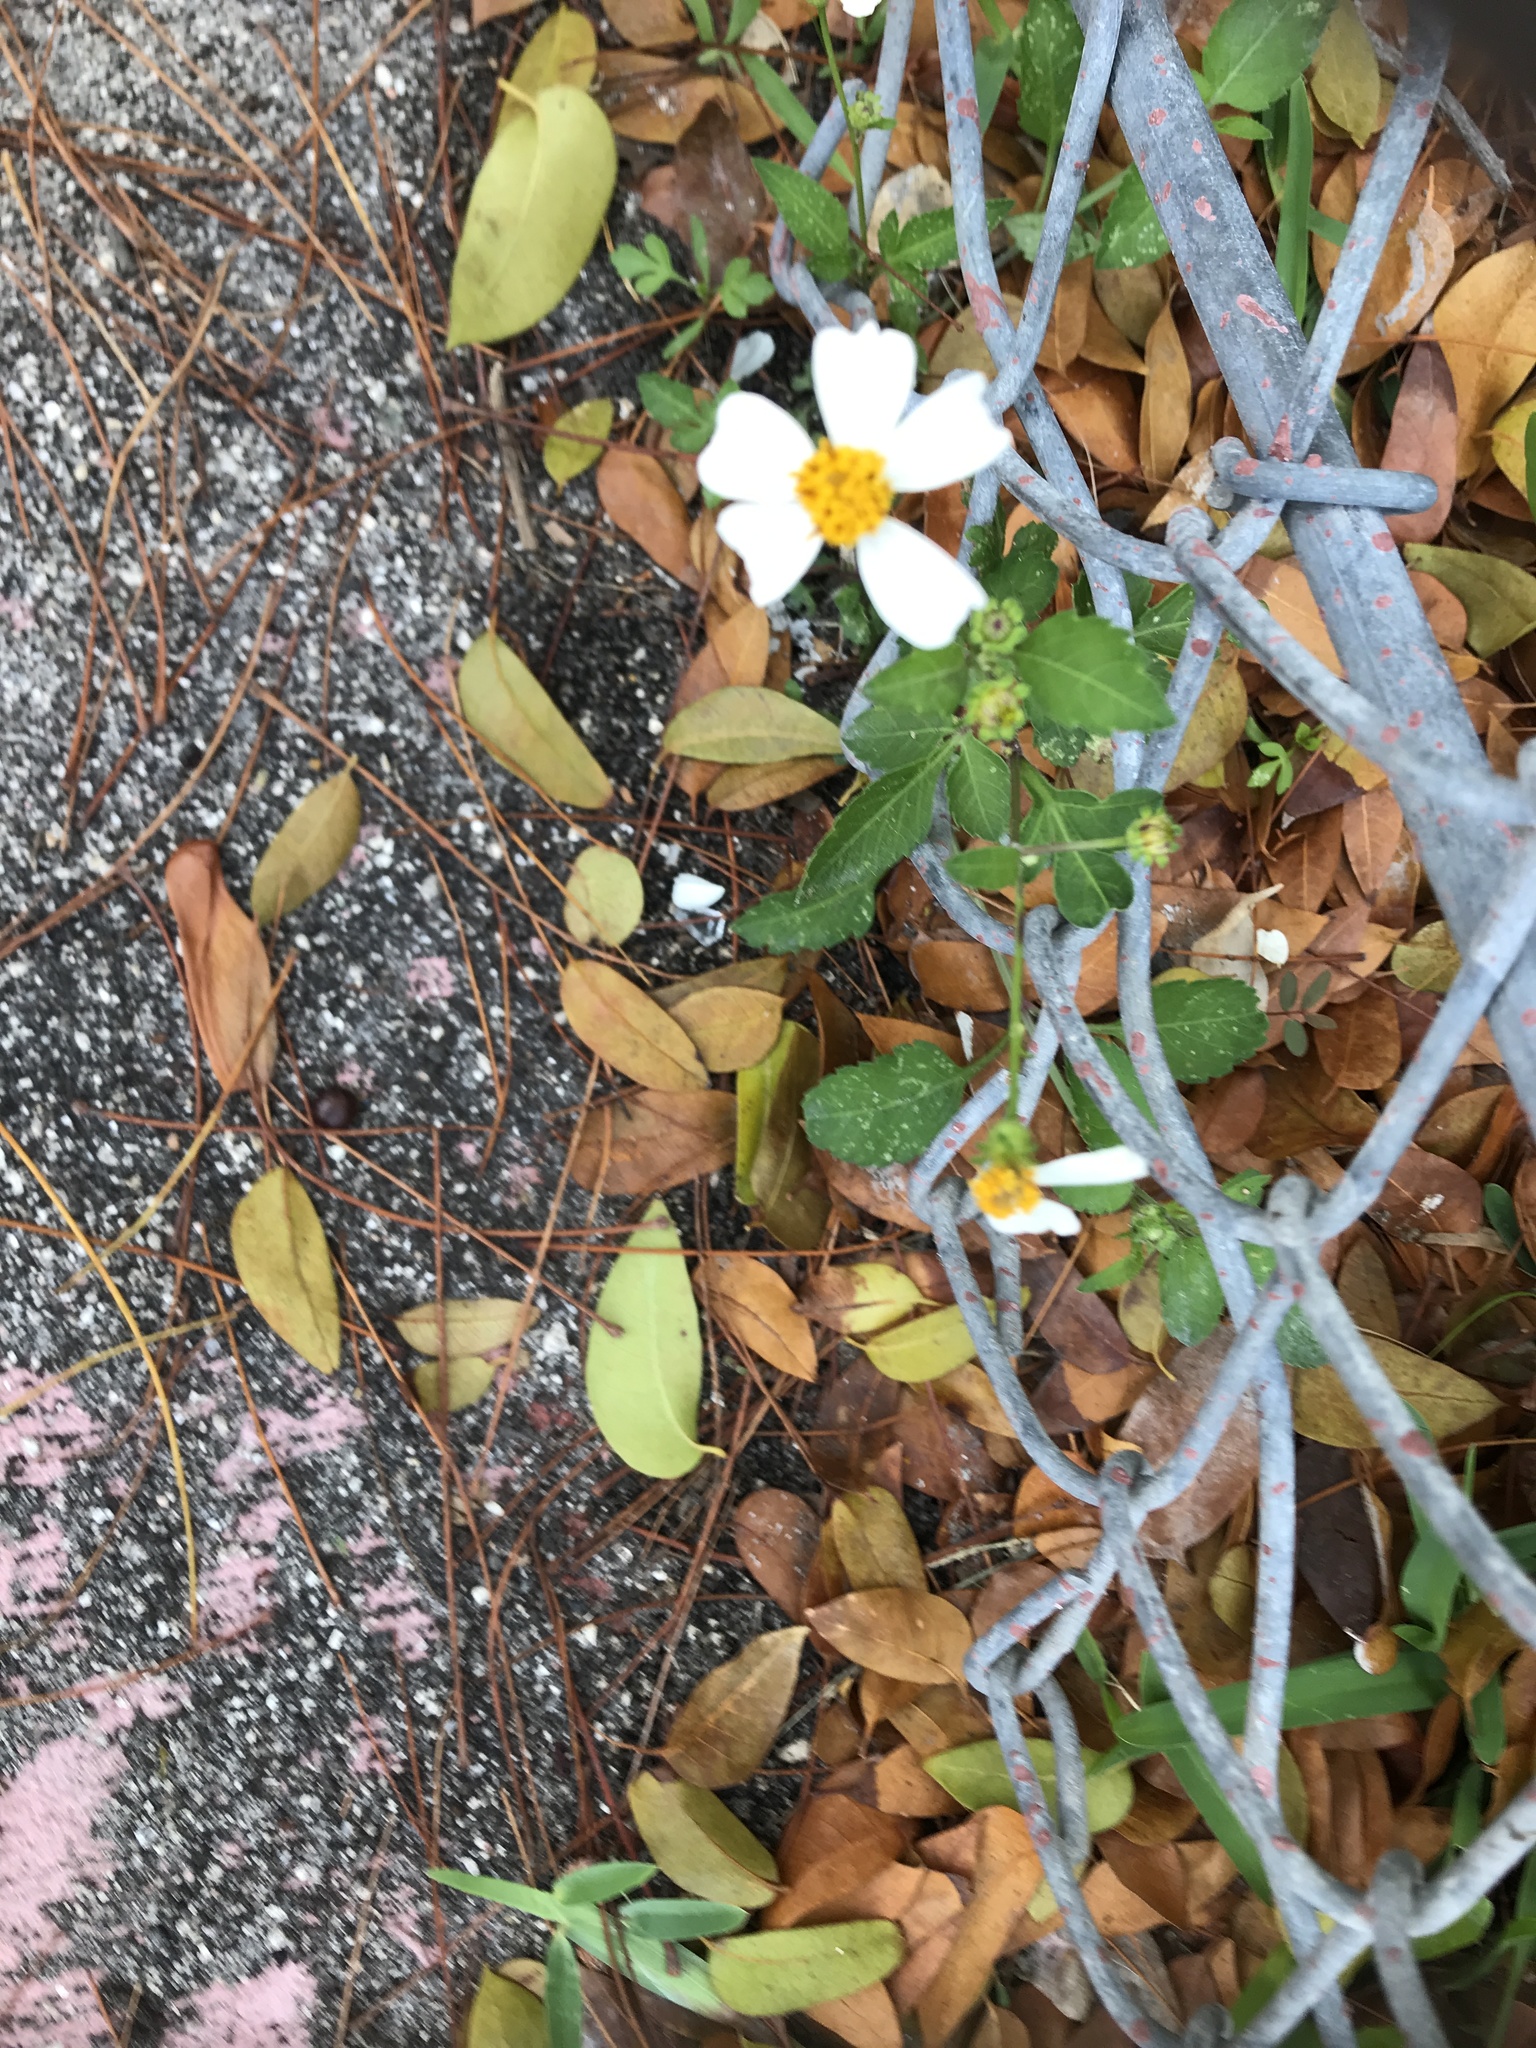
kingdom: Plantae
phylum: Tracheophyta
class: Magnoliopsida
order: Asterales
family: Asteraceae
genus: Bidens
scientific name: Bidens alba
